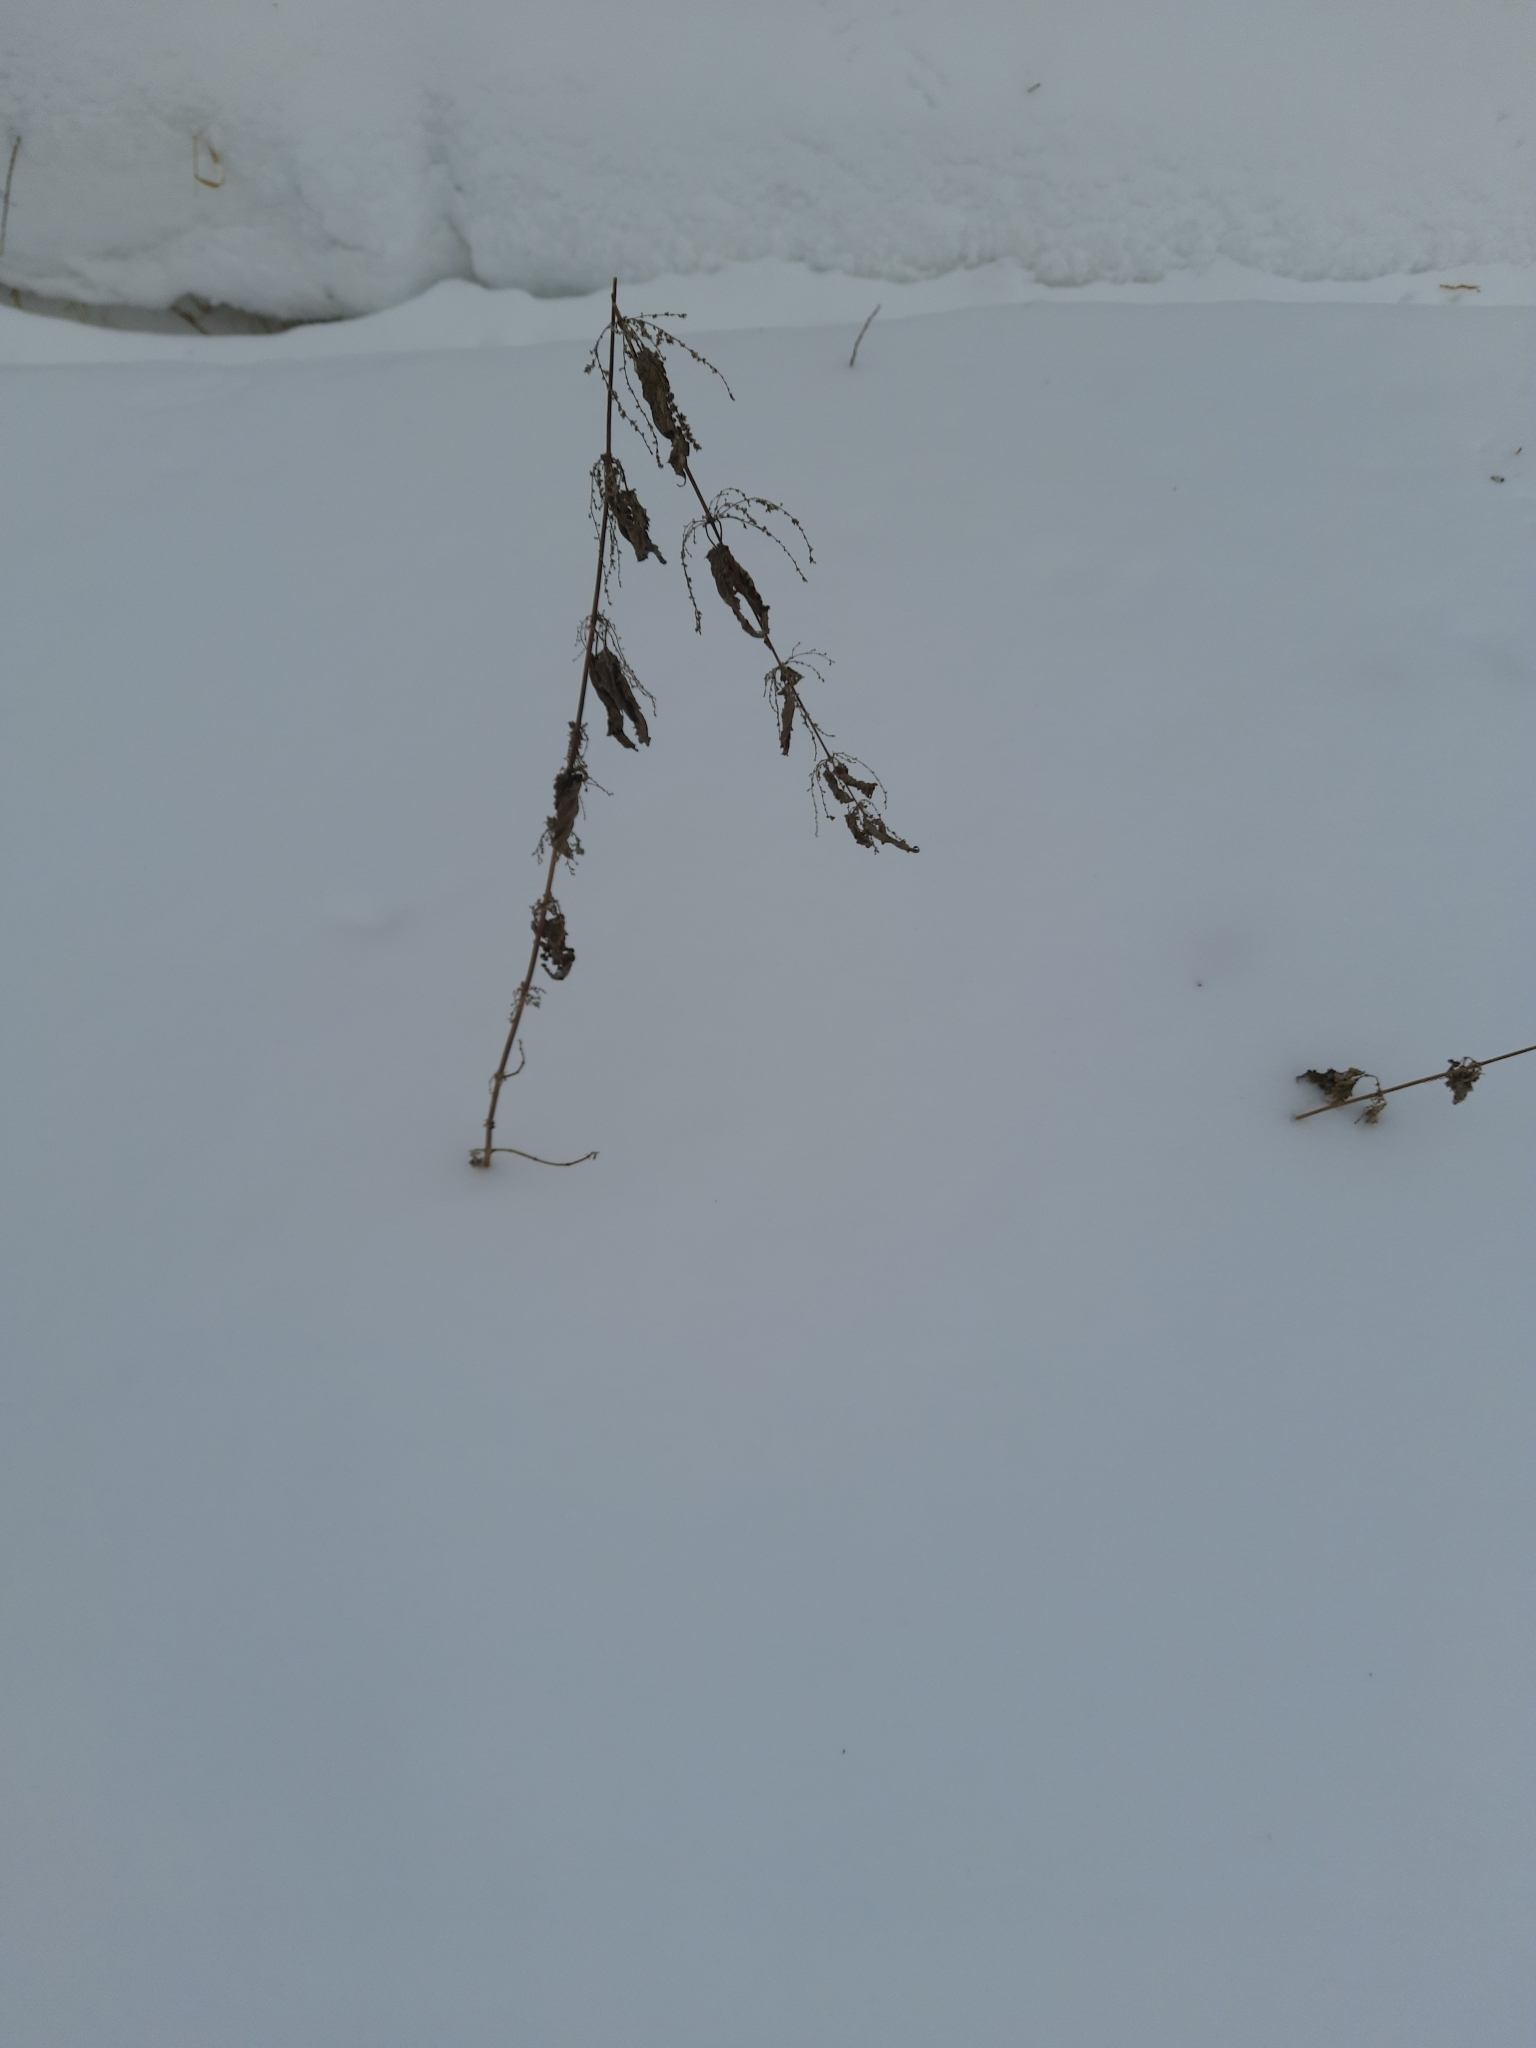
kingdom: Plantae
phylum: Tracheophyta
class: Magnoliopsida
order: Rosales
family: Urticaceae
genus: Urtica
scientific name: Urtica dioica
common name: Common nettle
